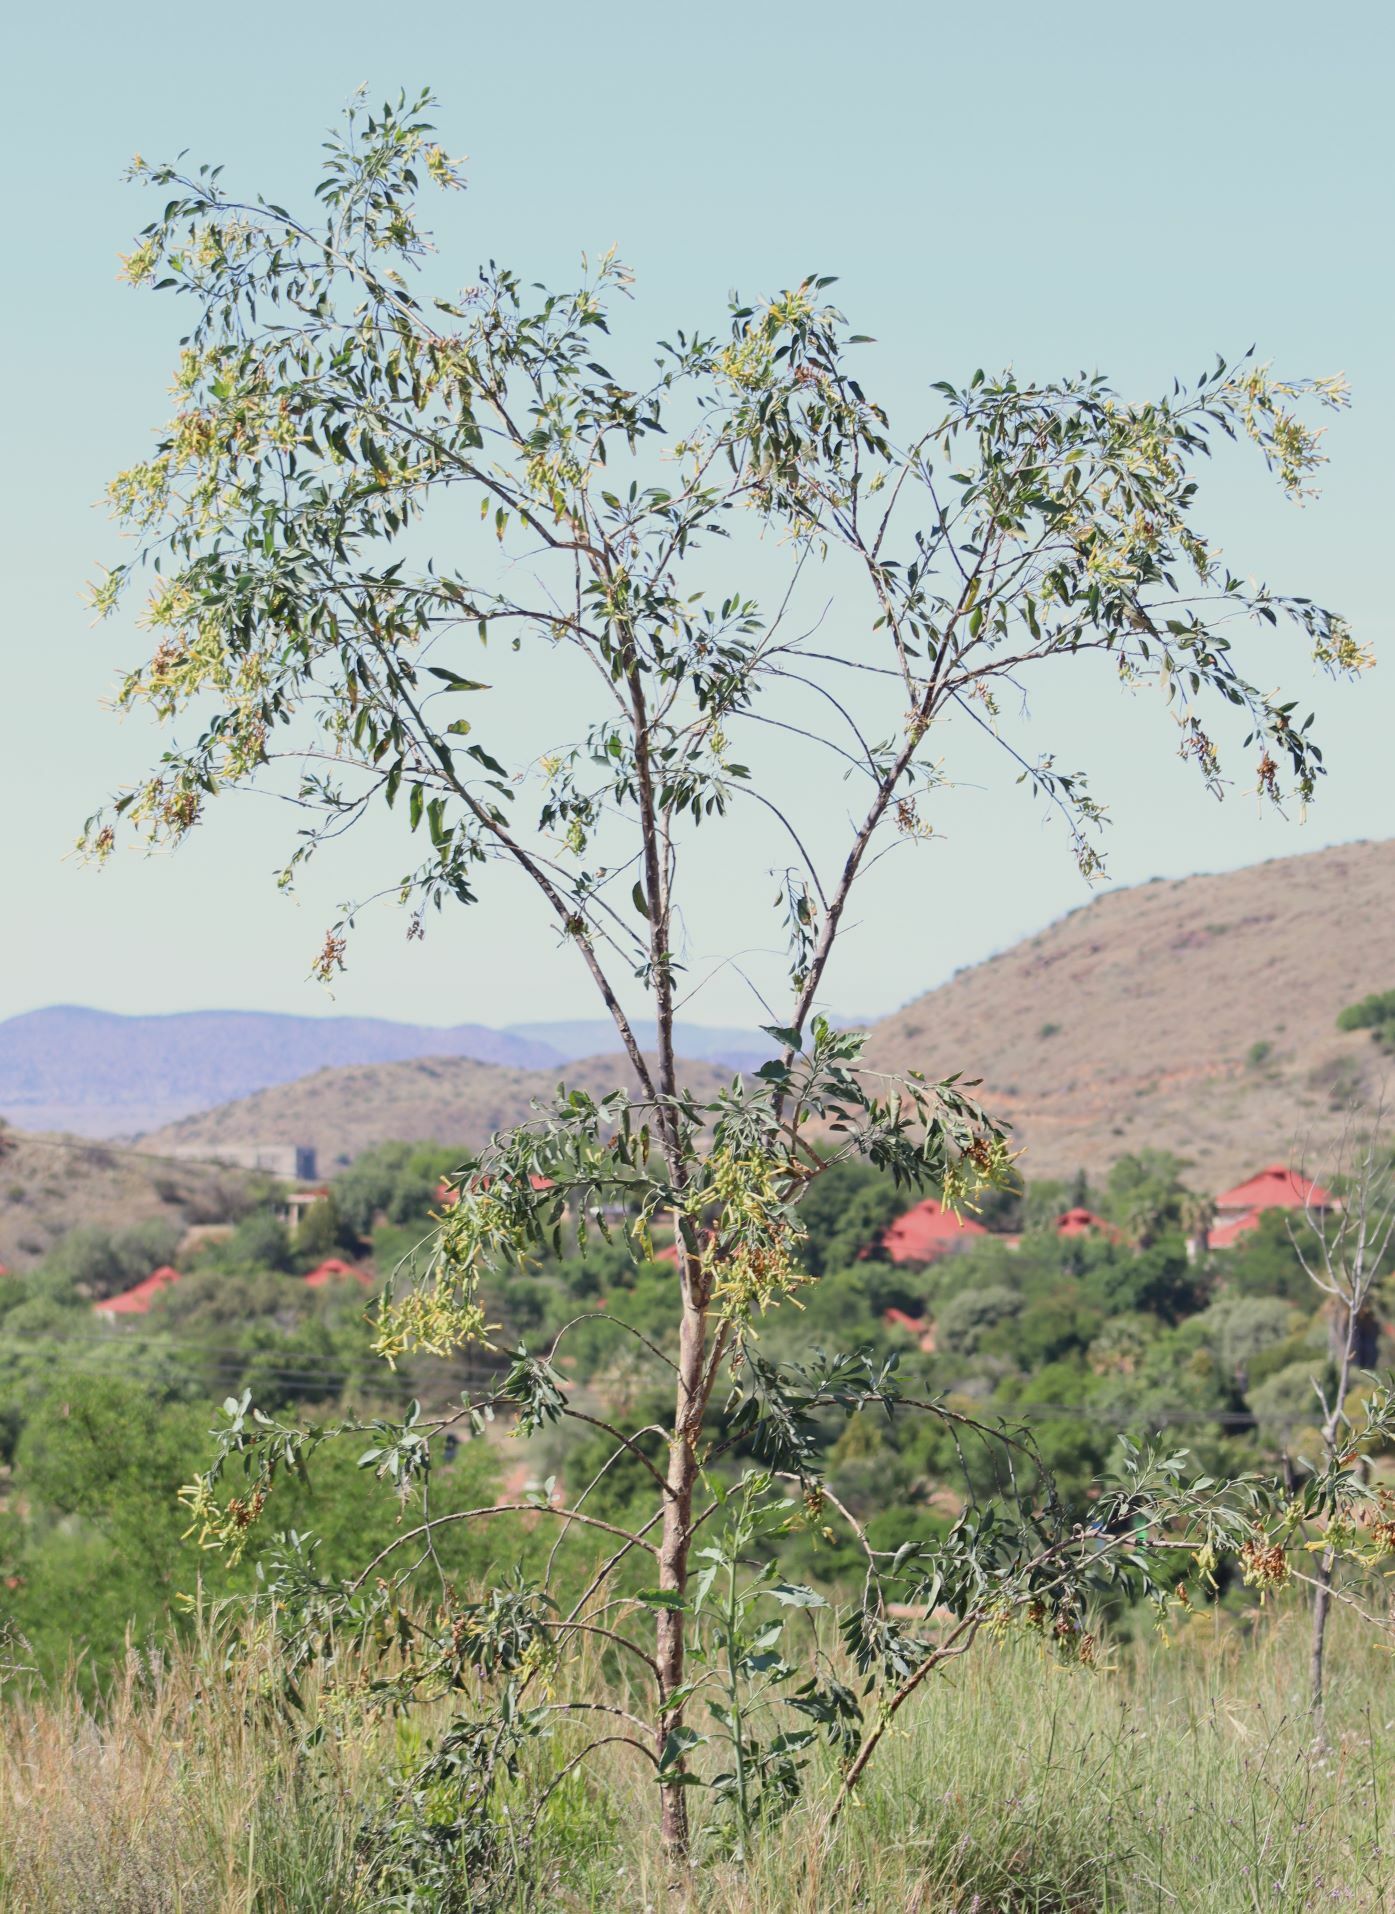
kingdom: Plantae
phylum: Tracheophyta
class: Magnoliopsida
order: Solanales
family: Solanaceae
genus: Nicotiana
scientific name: Nicotiana glauca
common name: Tree tobacco
